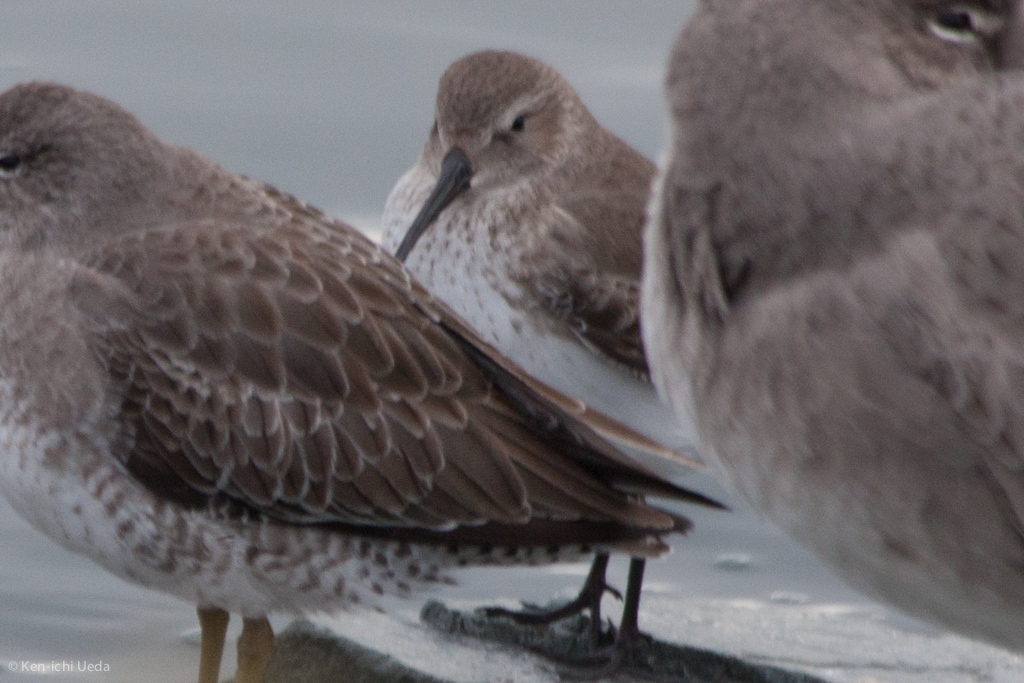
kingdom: Animalia
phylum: Chordata
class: Aves
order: Charadriiformes
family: Scolopacidae
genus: Calidris
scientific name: Calidris alpina
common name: Dunlin
